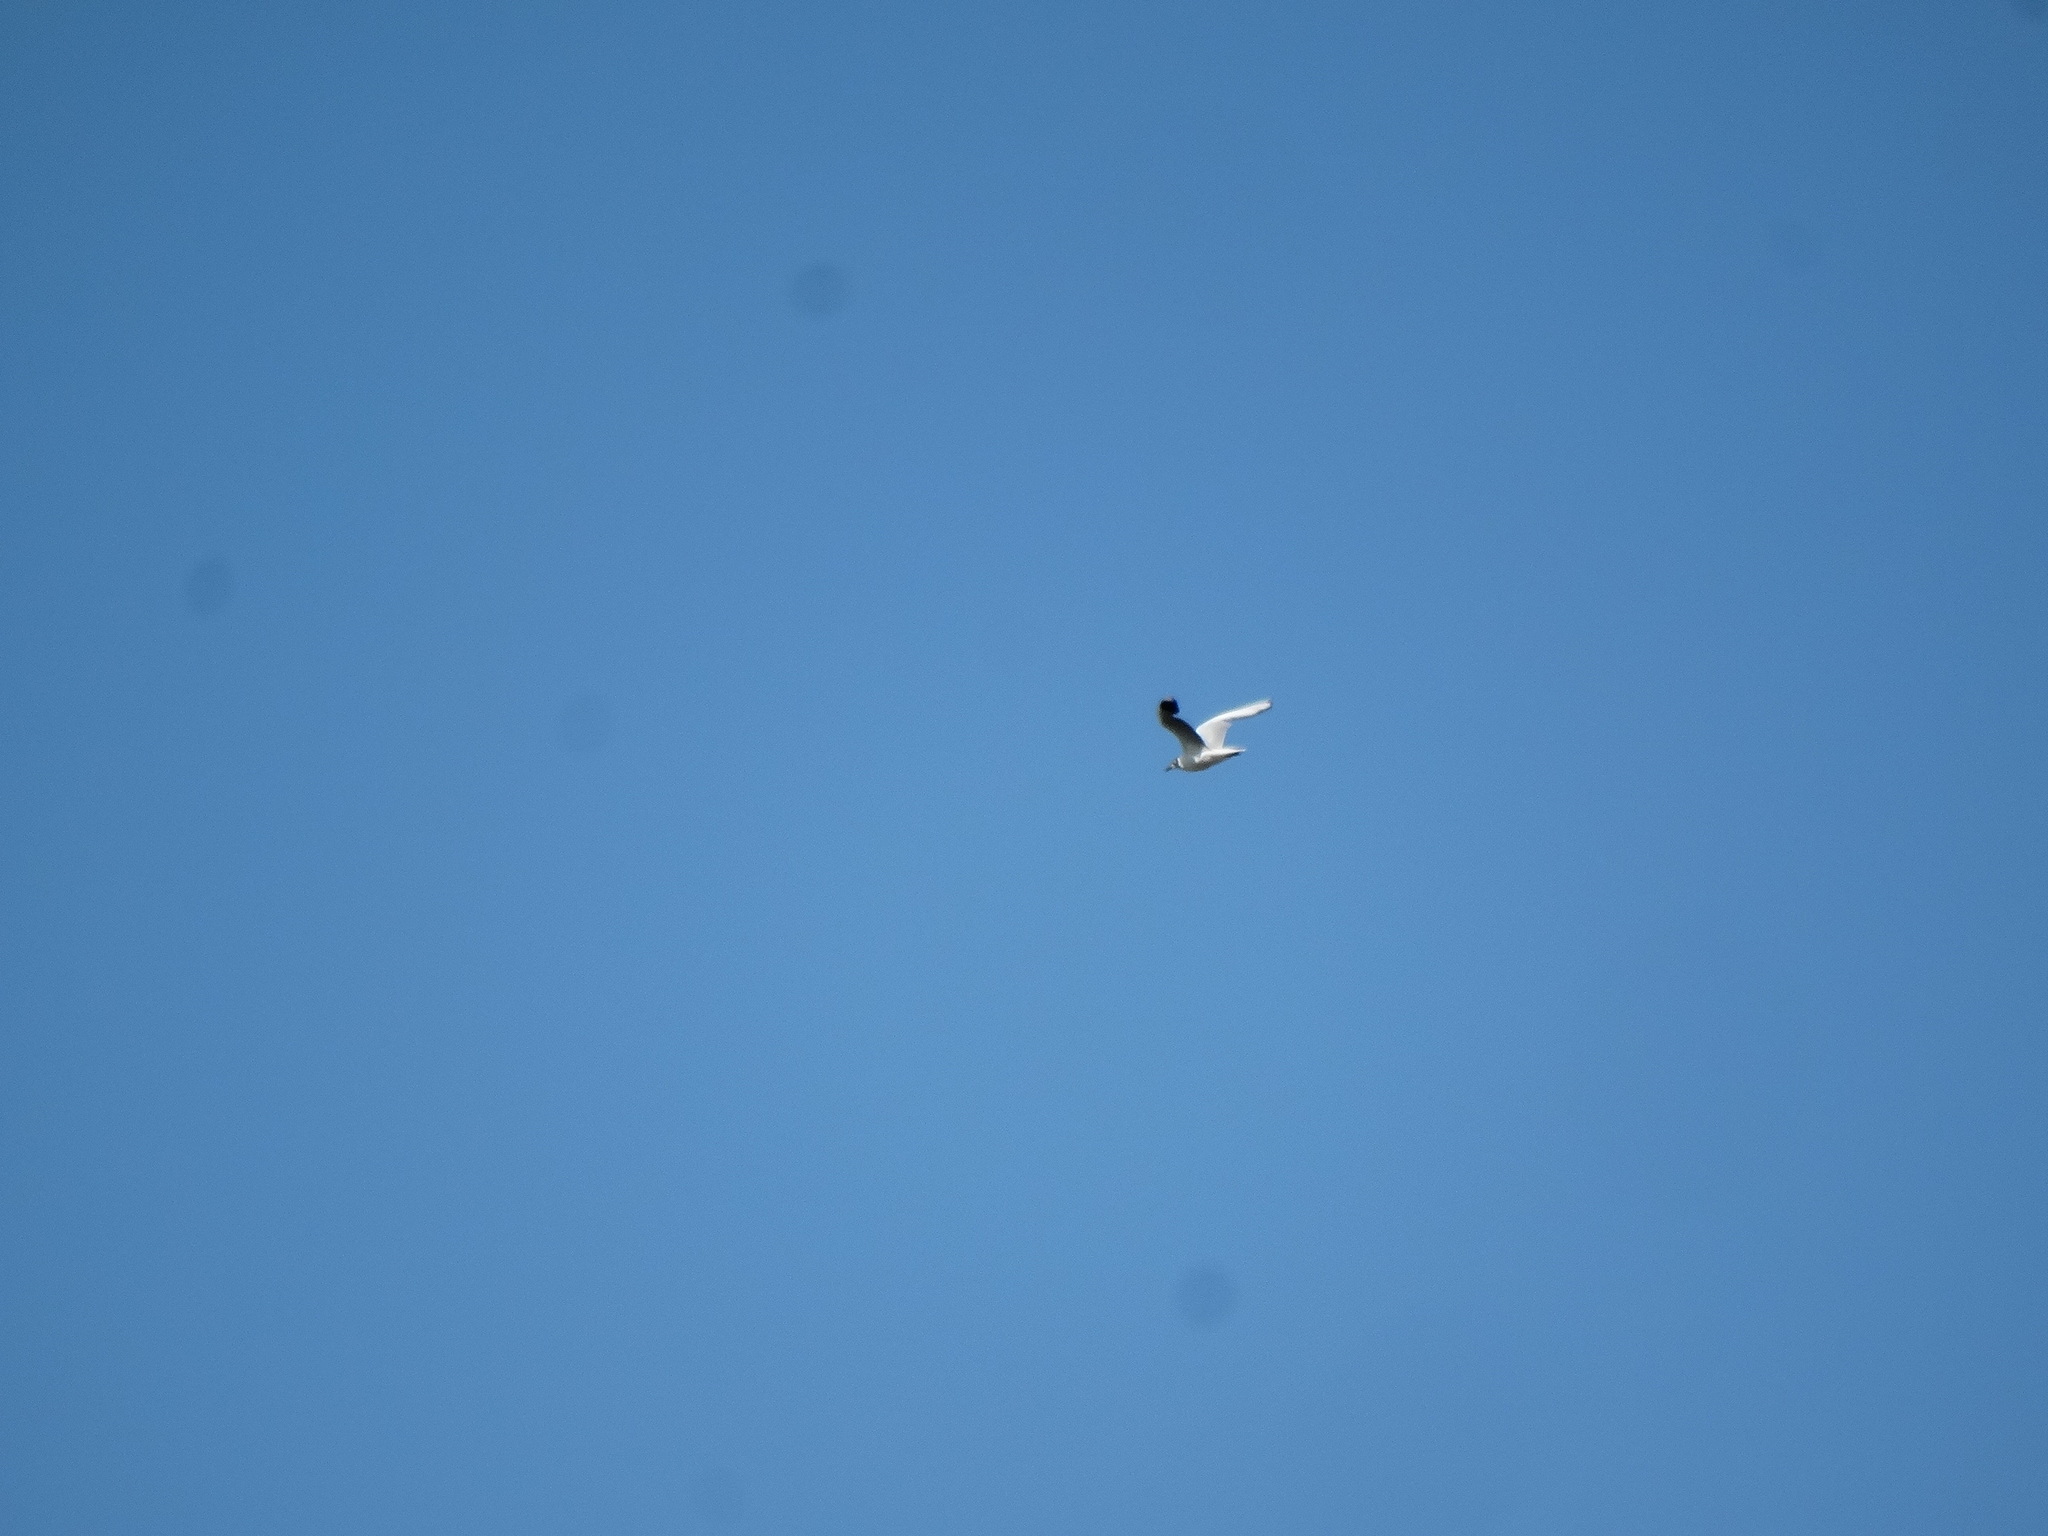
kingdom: Animalia
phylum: Chordata
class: Aves
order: Charadriiformes
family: Laridae
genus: Chroicocephalus
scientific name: Chroicocephalus maculipennis
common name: Brown-hooded gull
